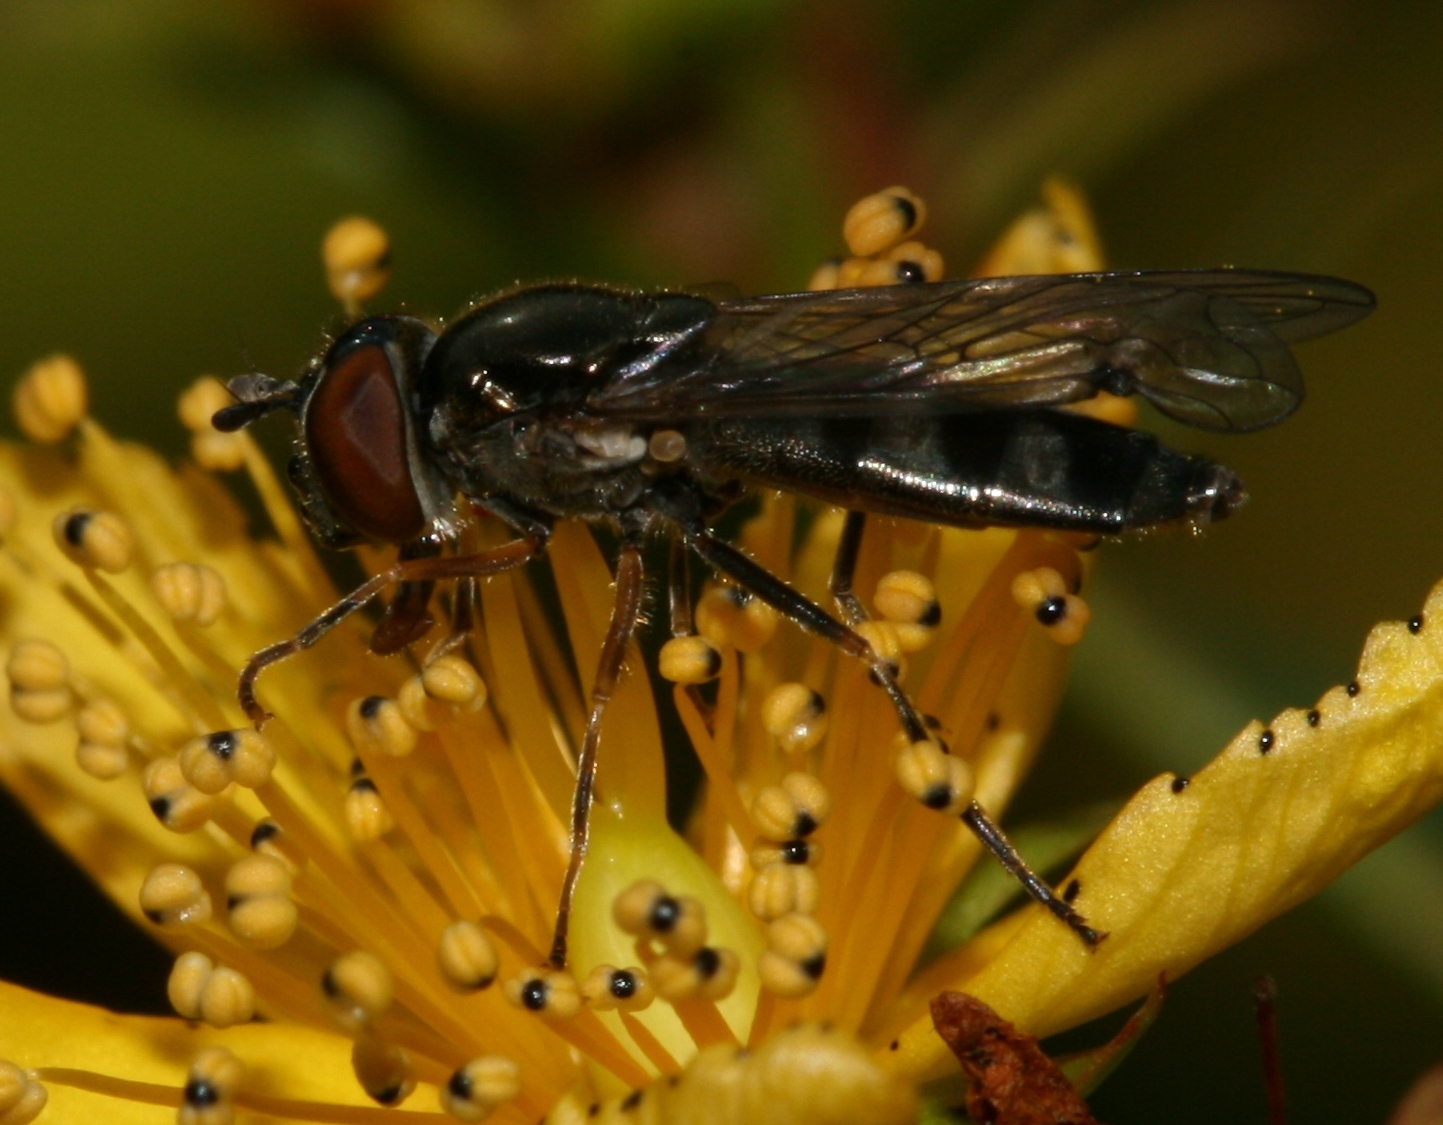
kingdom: Animalia
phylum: Arthropoda
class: Insecta
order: Diptera
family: Syrphidae
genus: Platycheirus
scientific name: Platycheirus albimanus
